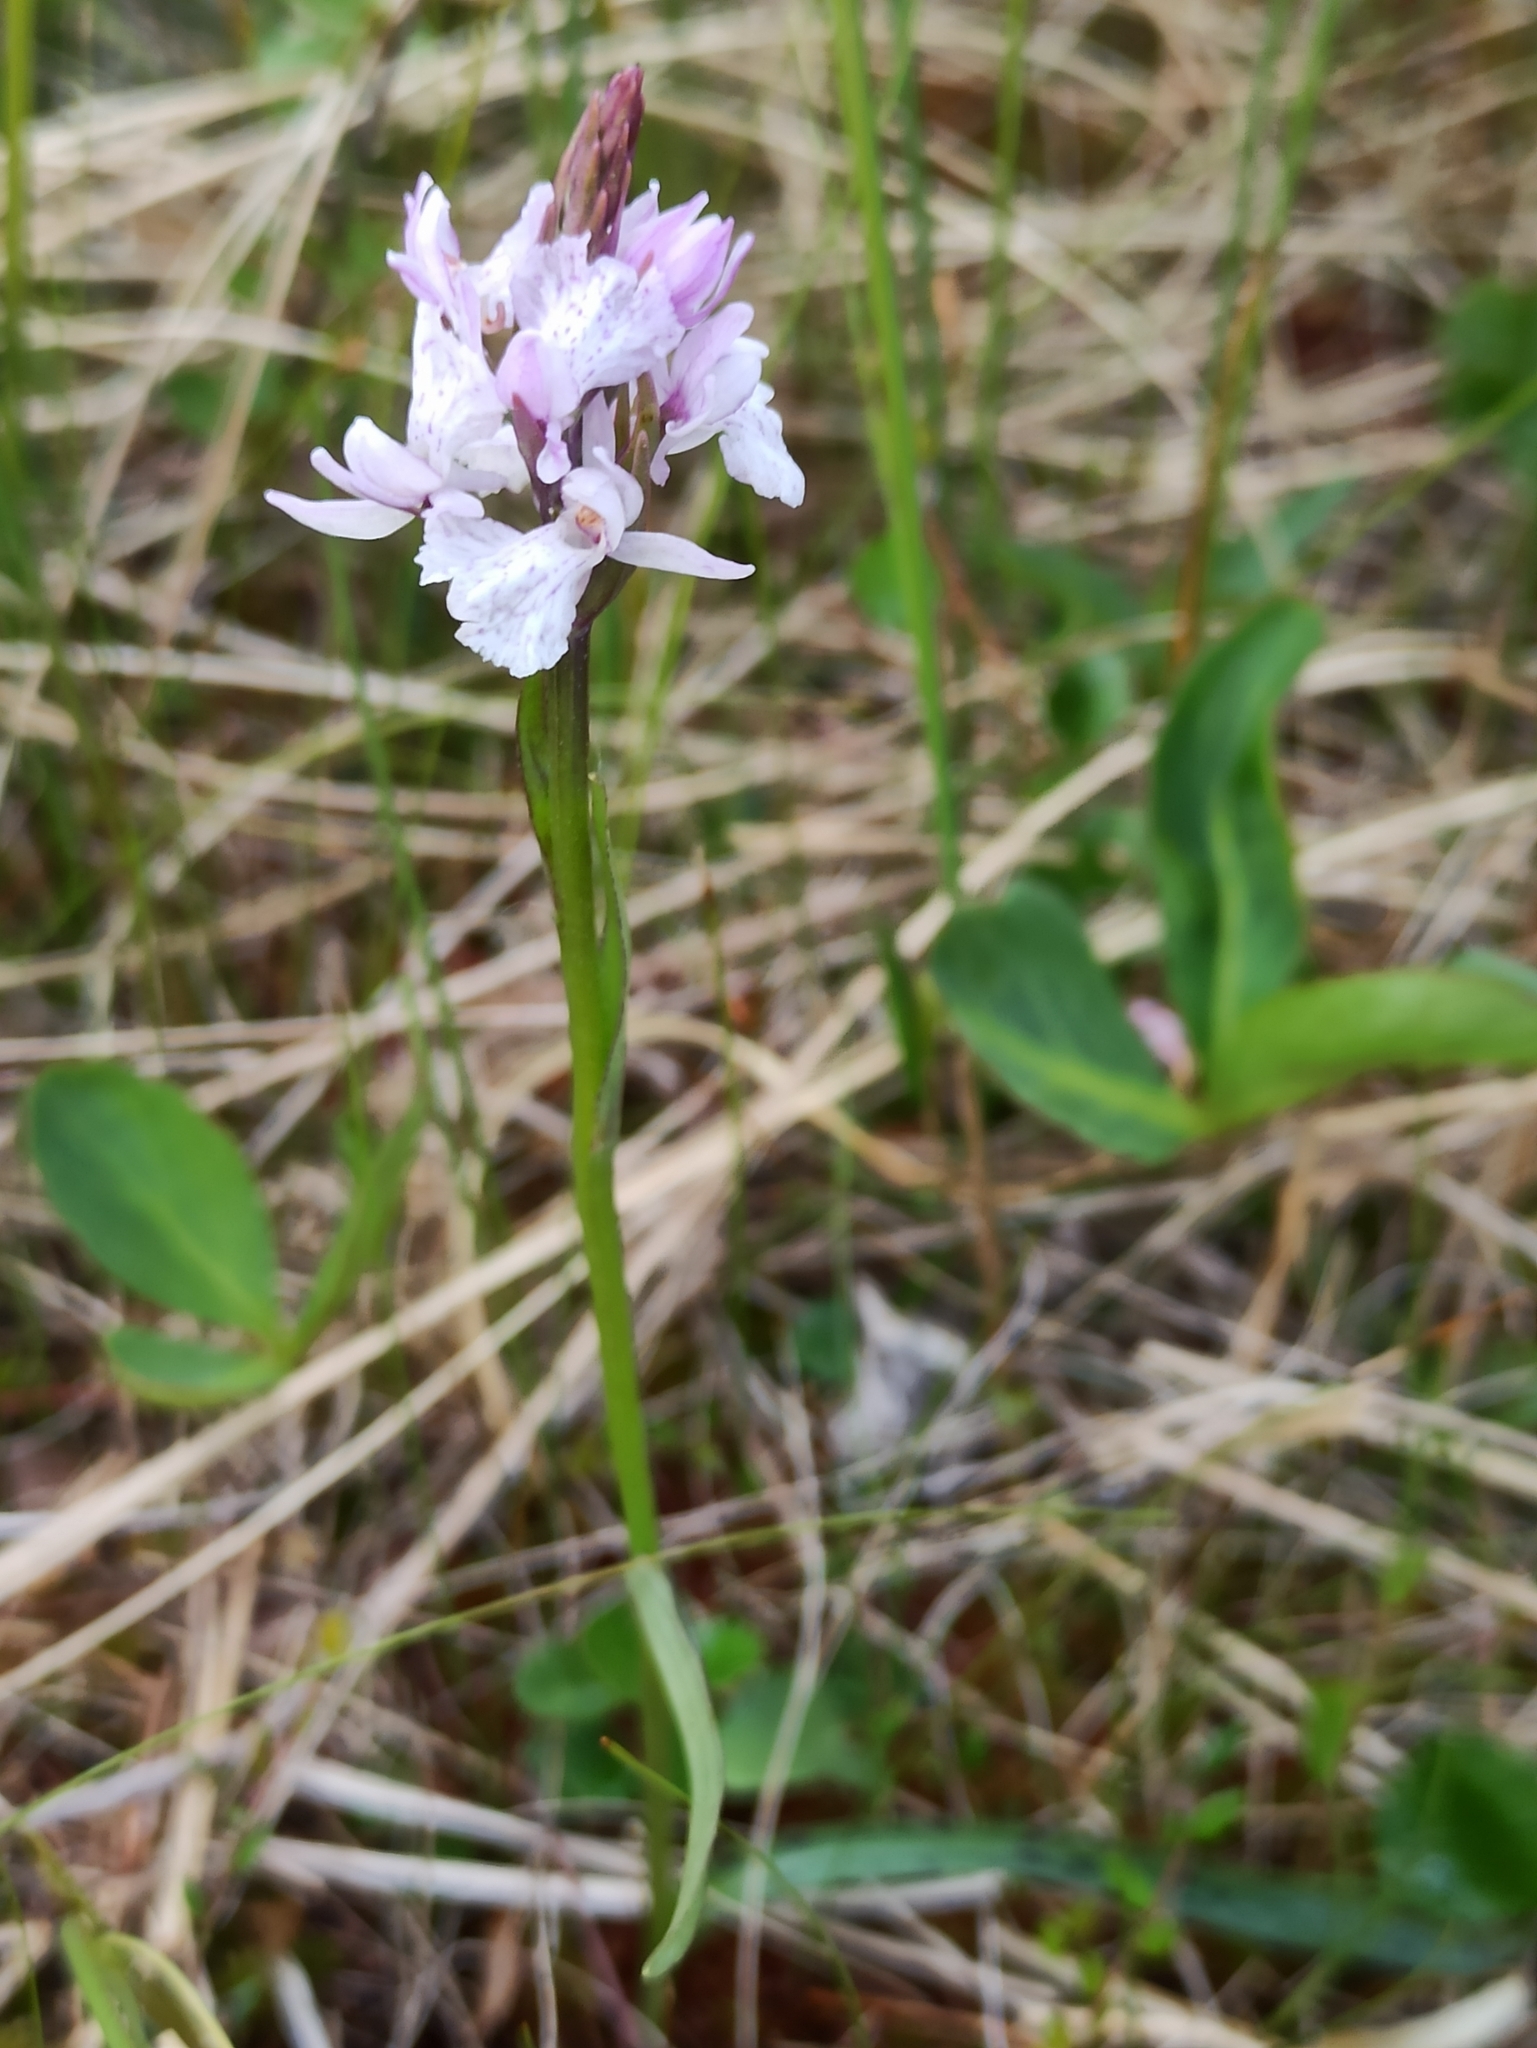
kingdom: Plantae
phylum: Tracheophyta
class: Liliopsida
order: Asparagales
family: Orchidaceae
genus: Dactylorhiza
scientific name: Dactylorhiza maculata
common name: Heath spotted-orchid
